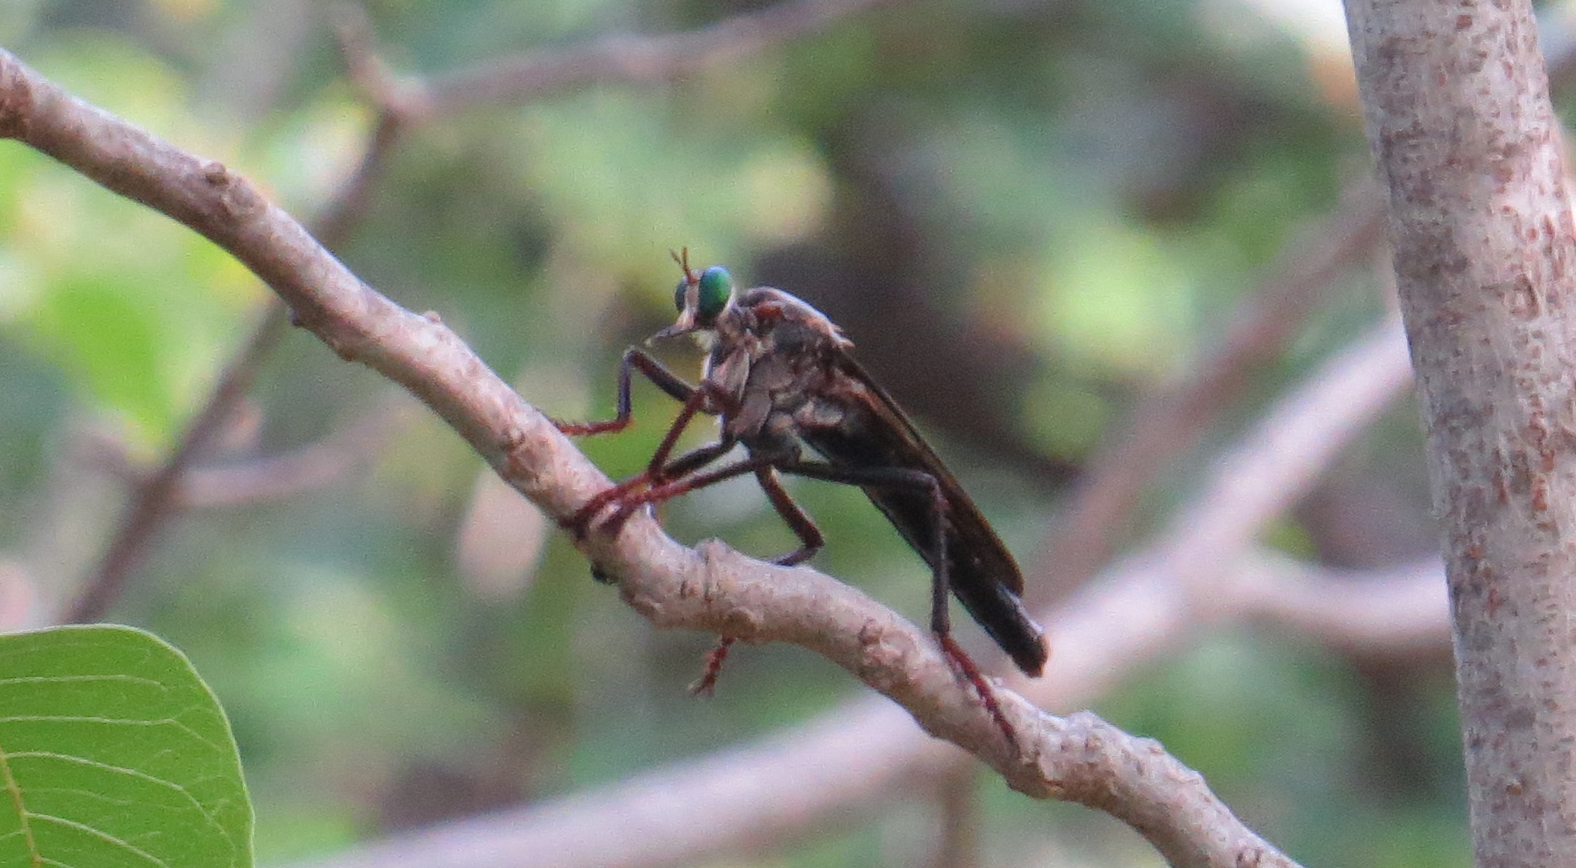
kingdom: Animalia
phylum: Arthropoda
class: Insecta
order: Diptera
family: Asilidae
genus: Microstylum
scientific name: Microstylum morosum
